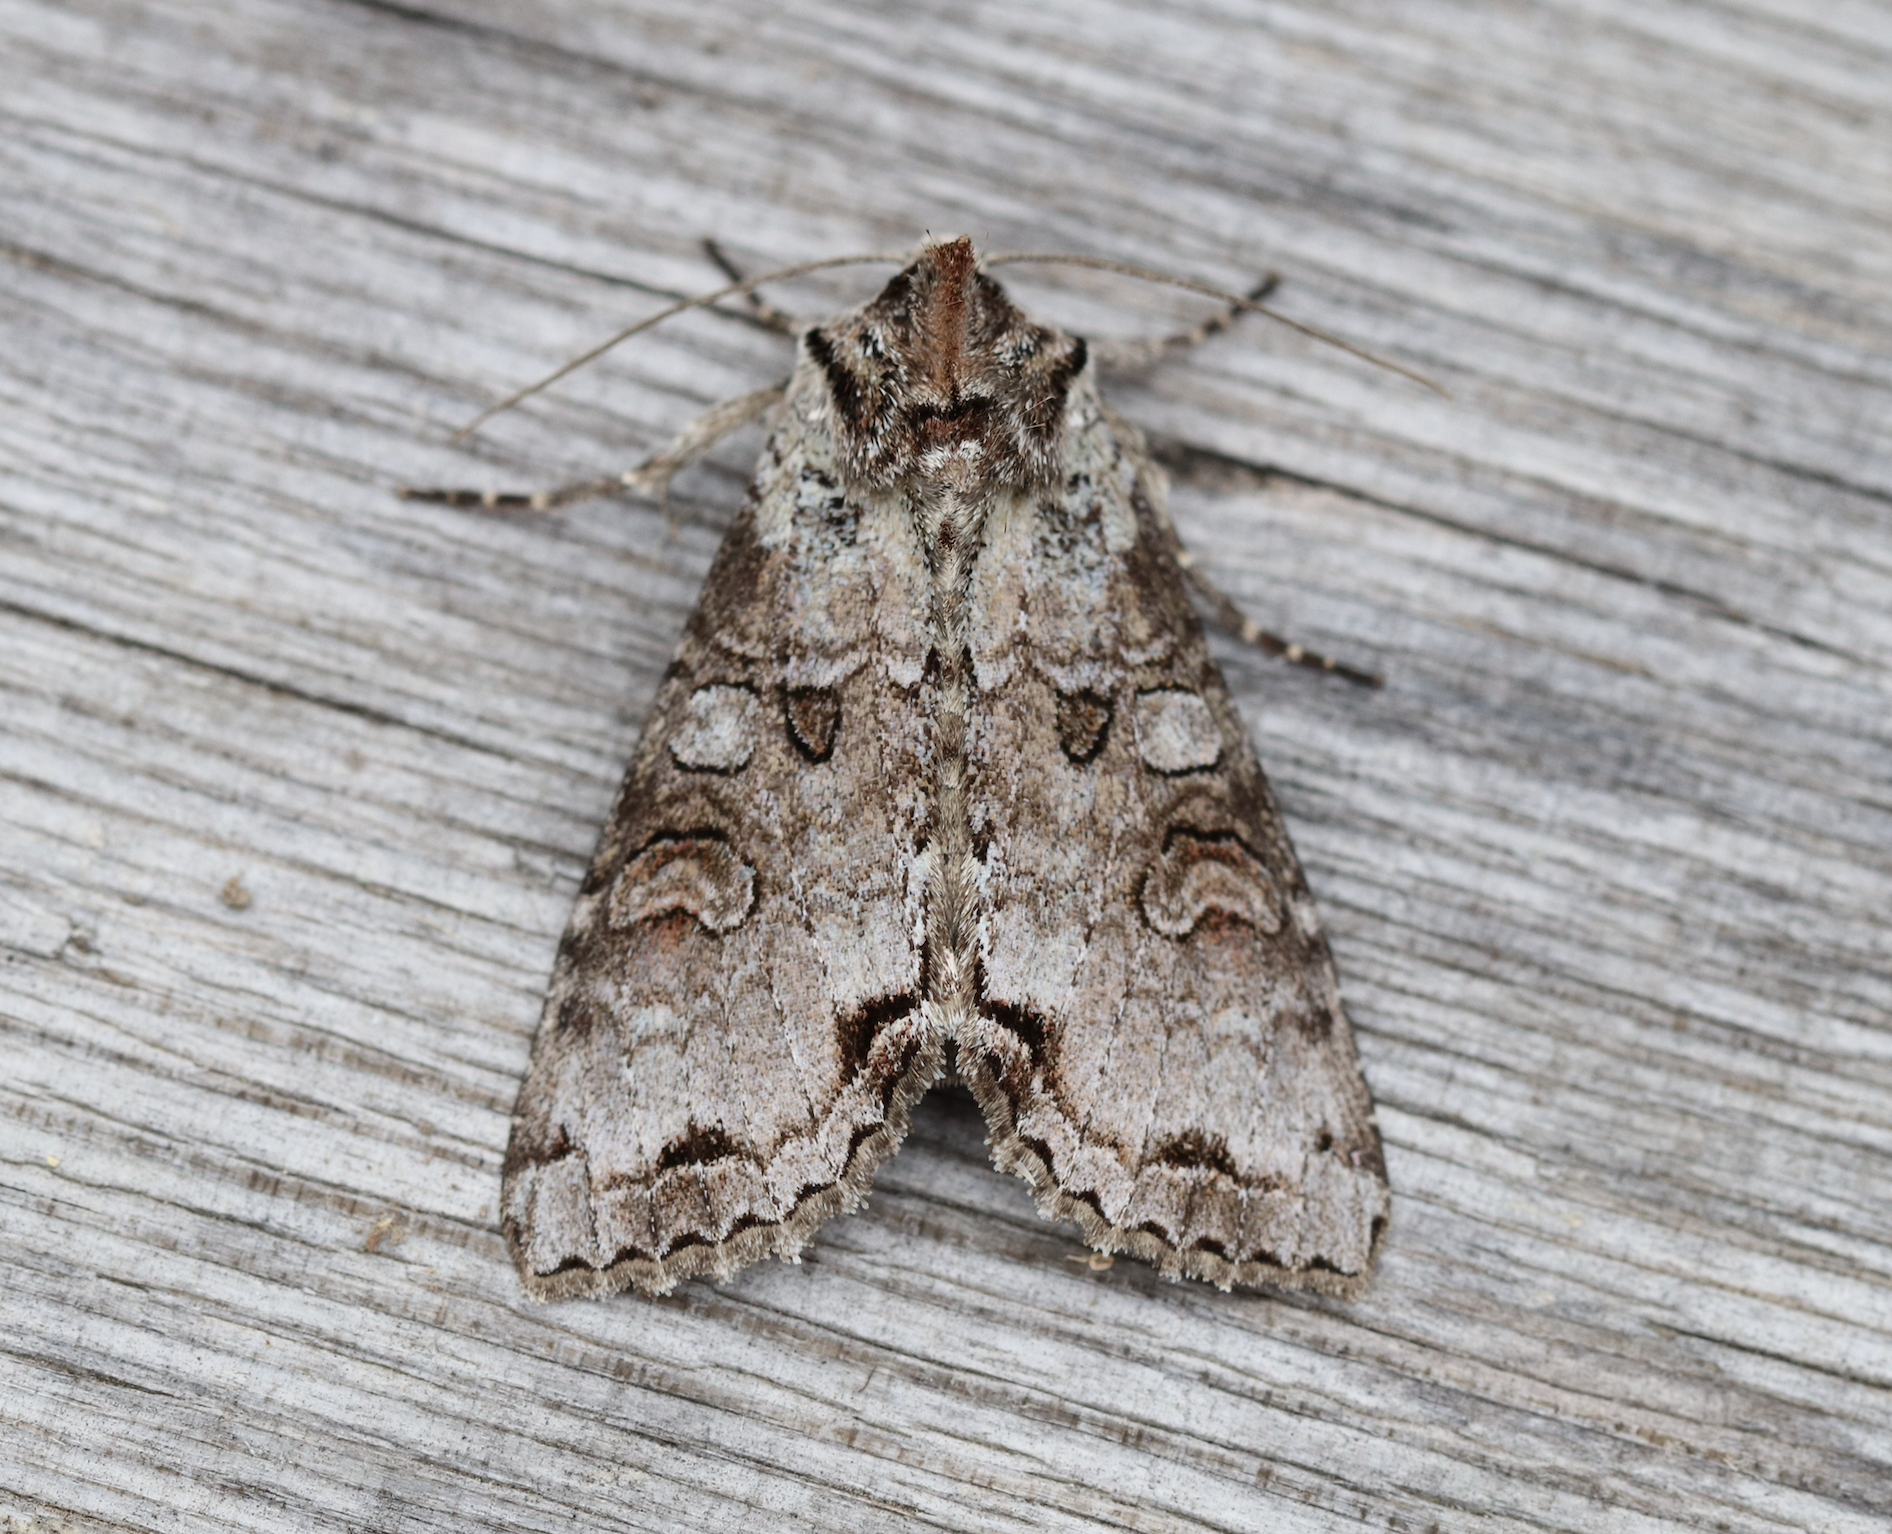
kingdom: Animalia
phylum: Arthropoda
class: Insecta
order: Lepidoptera
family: Noctuidae
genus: Polia
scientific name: Polia hepatica
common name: Silvery arches
